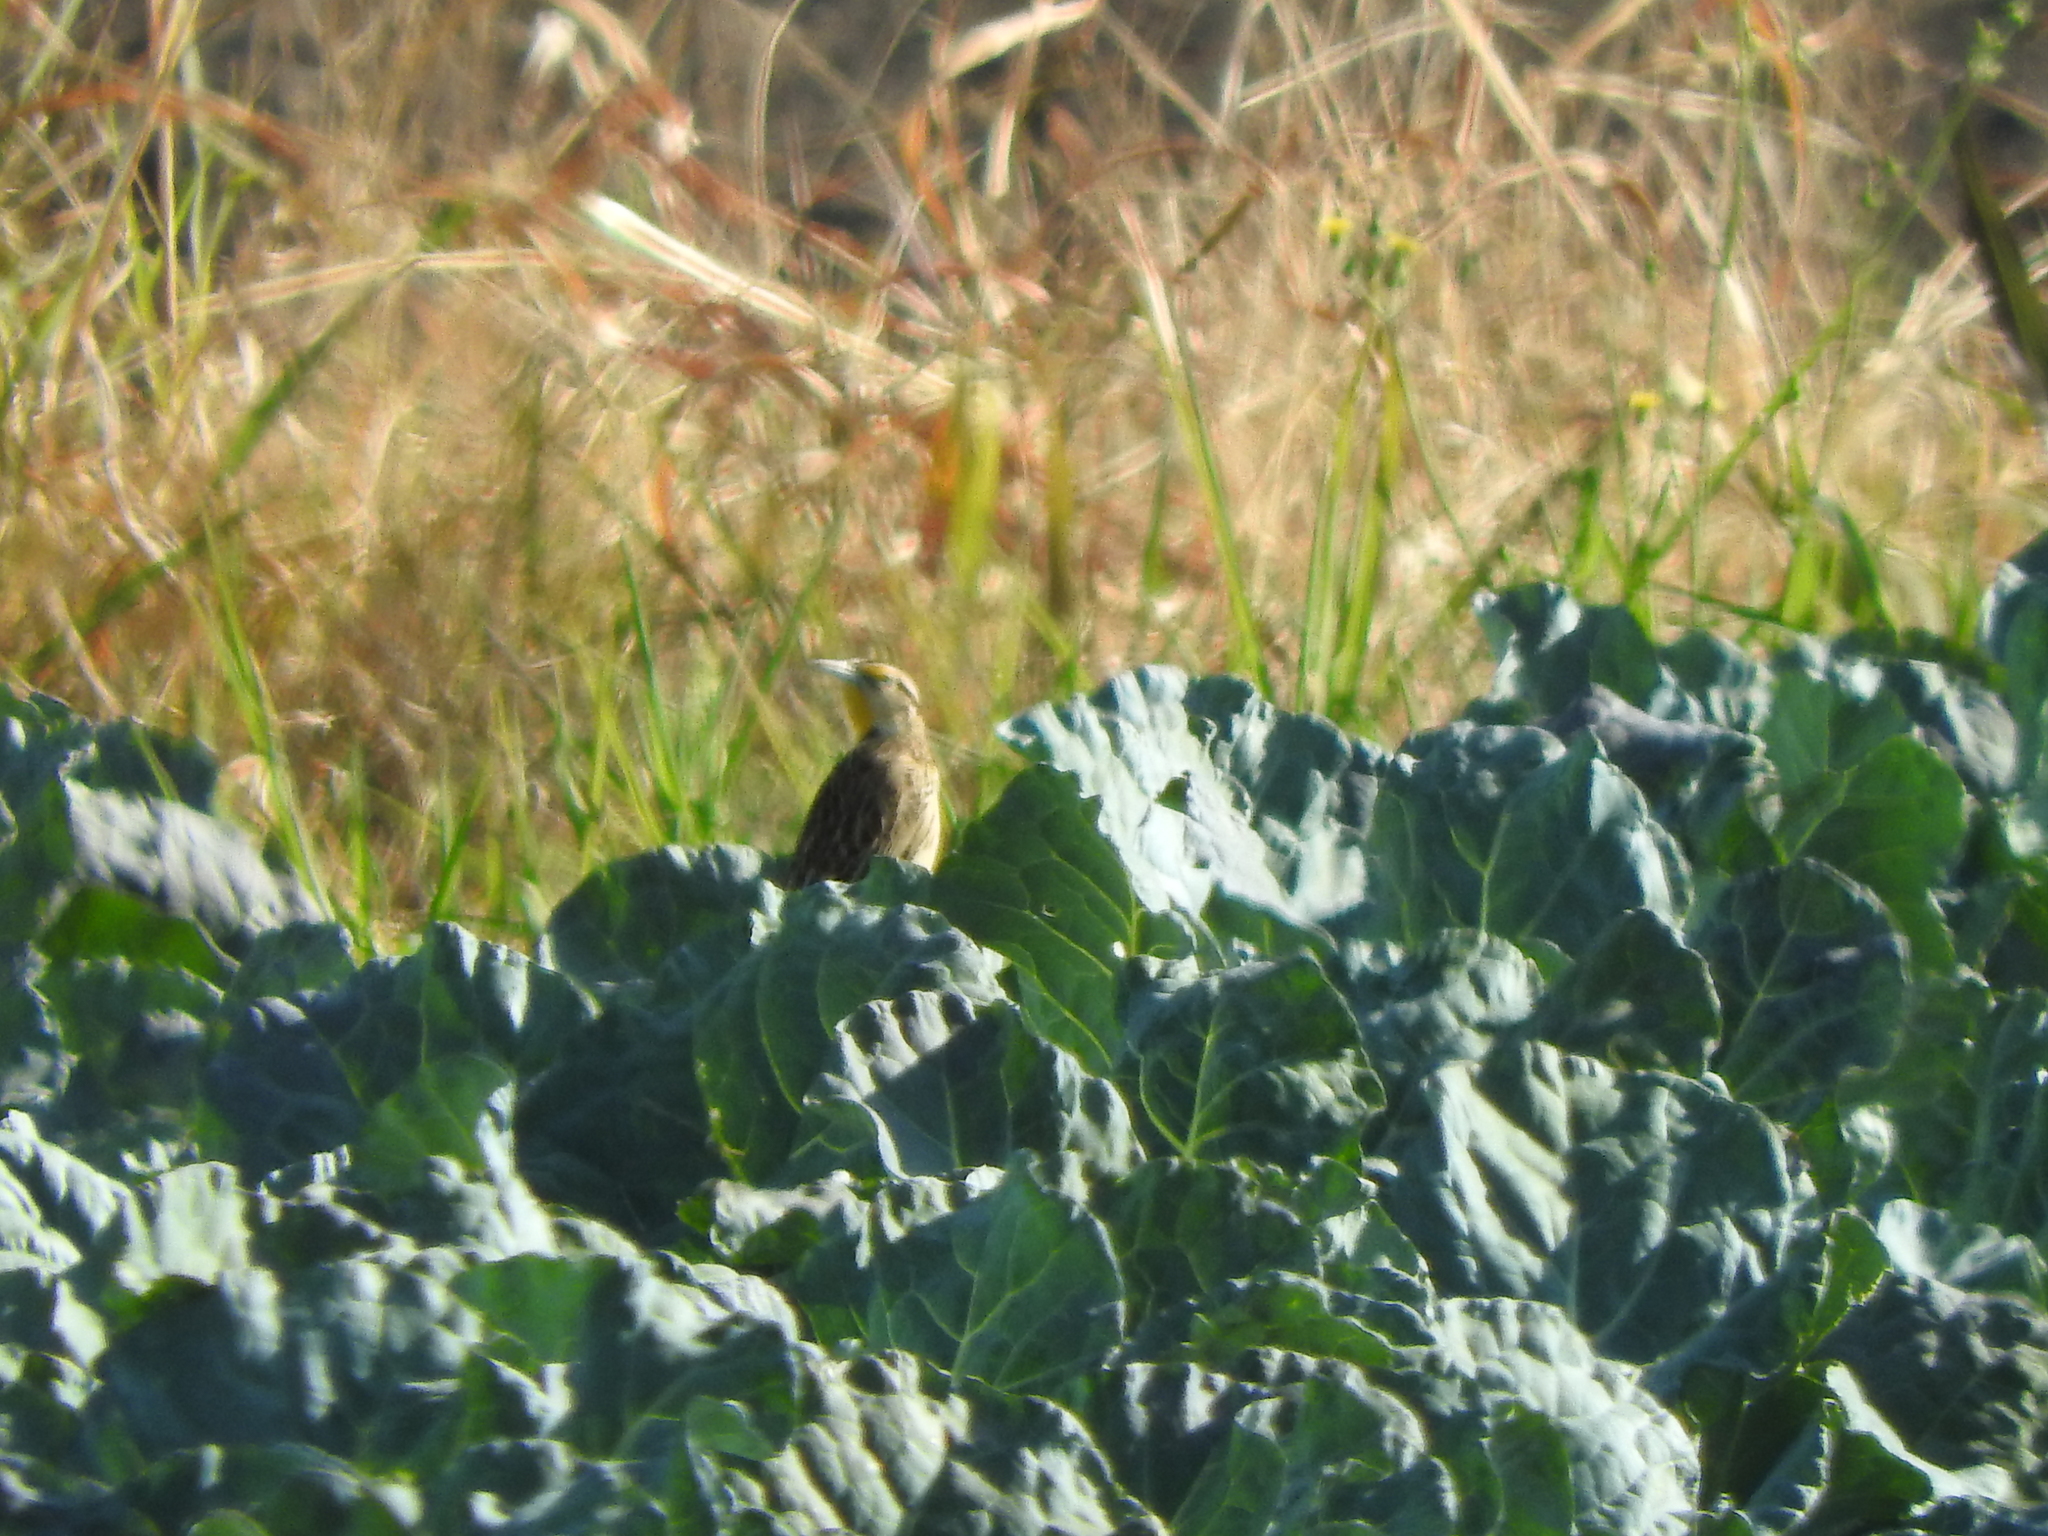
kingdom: Animalia
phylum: Chordata
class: Aves
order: Passeriformes
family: Icteridae
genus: Sturnella
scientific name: Sturnella lilianae
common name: Lilian's meadowlark
